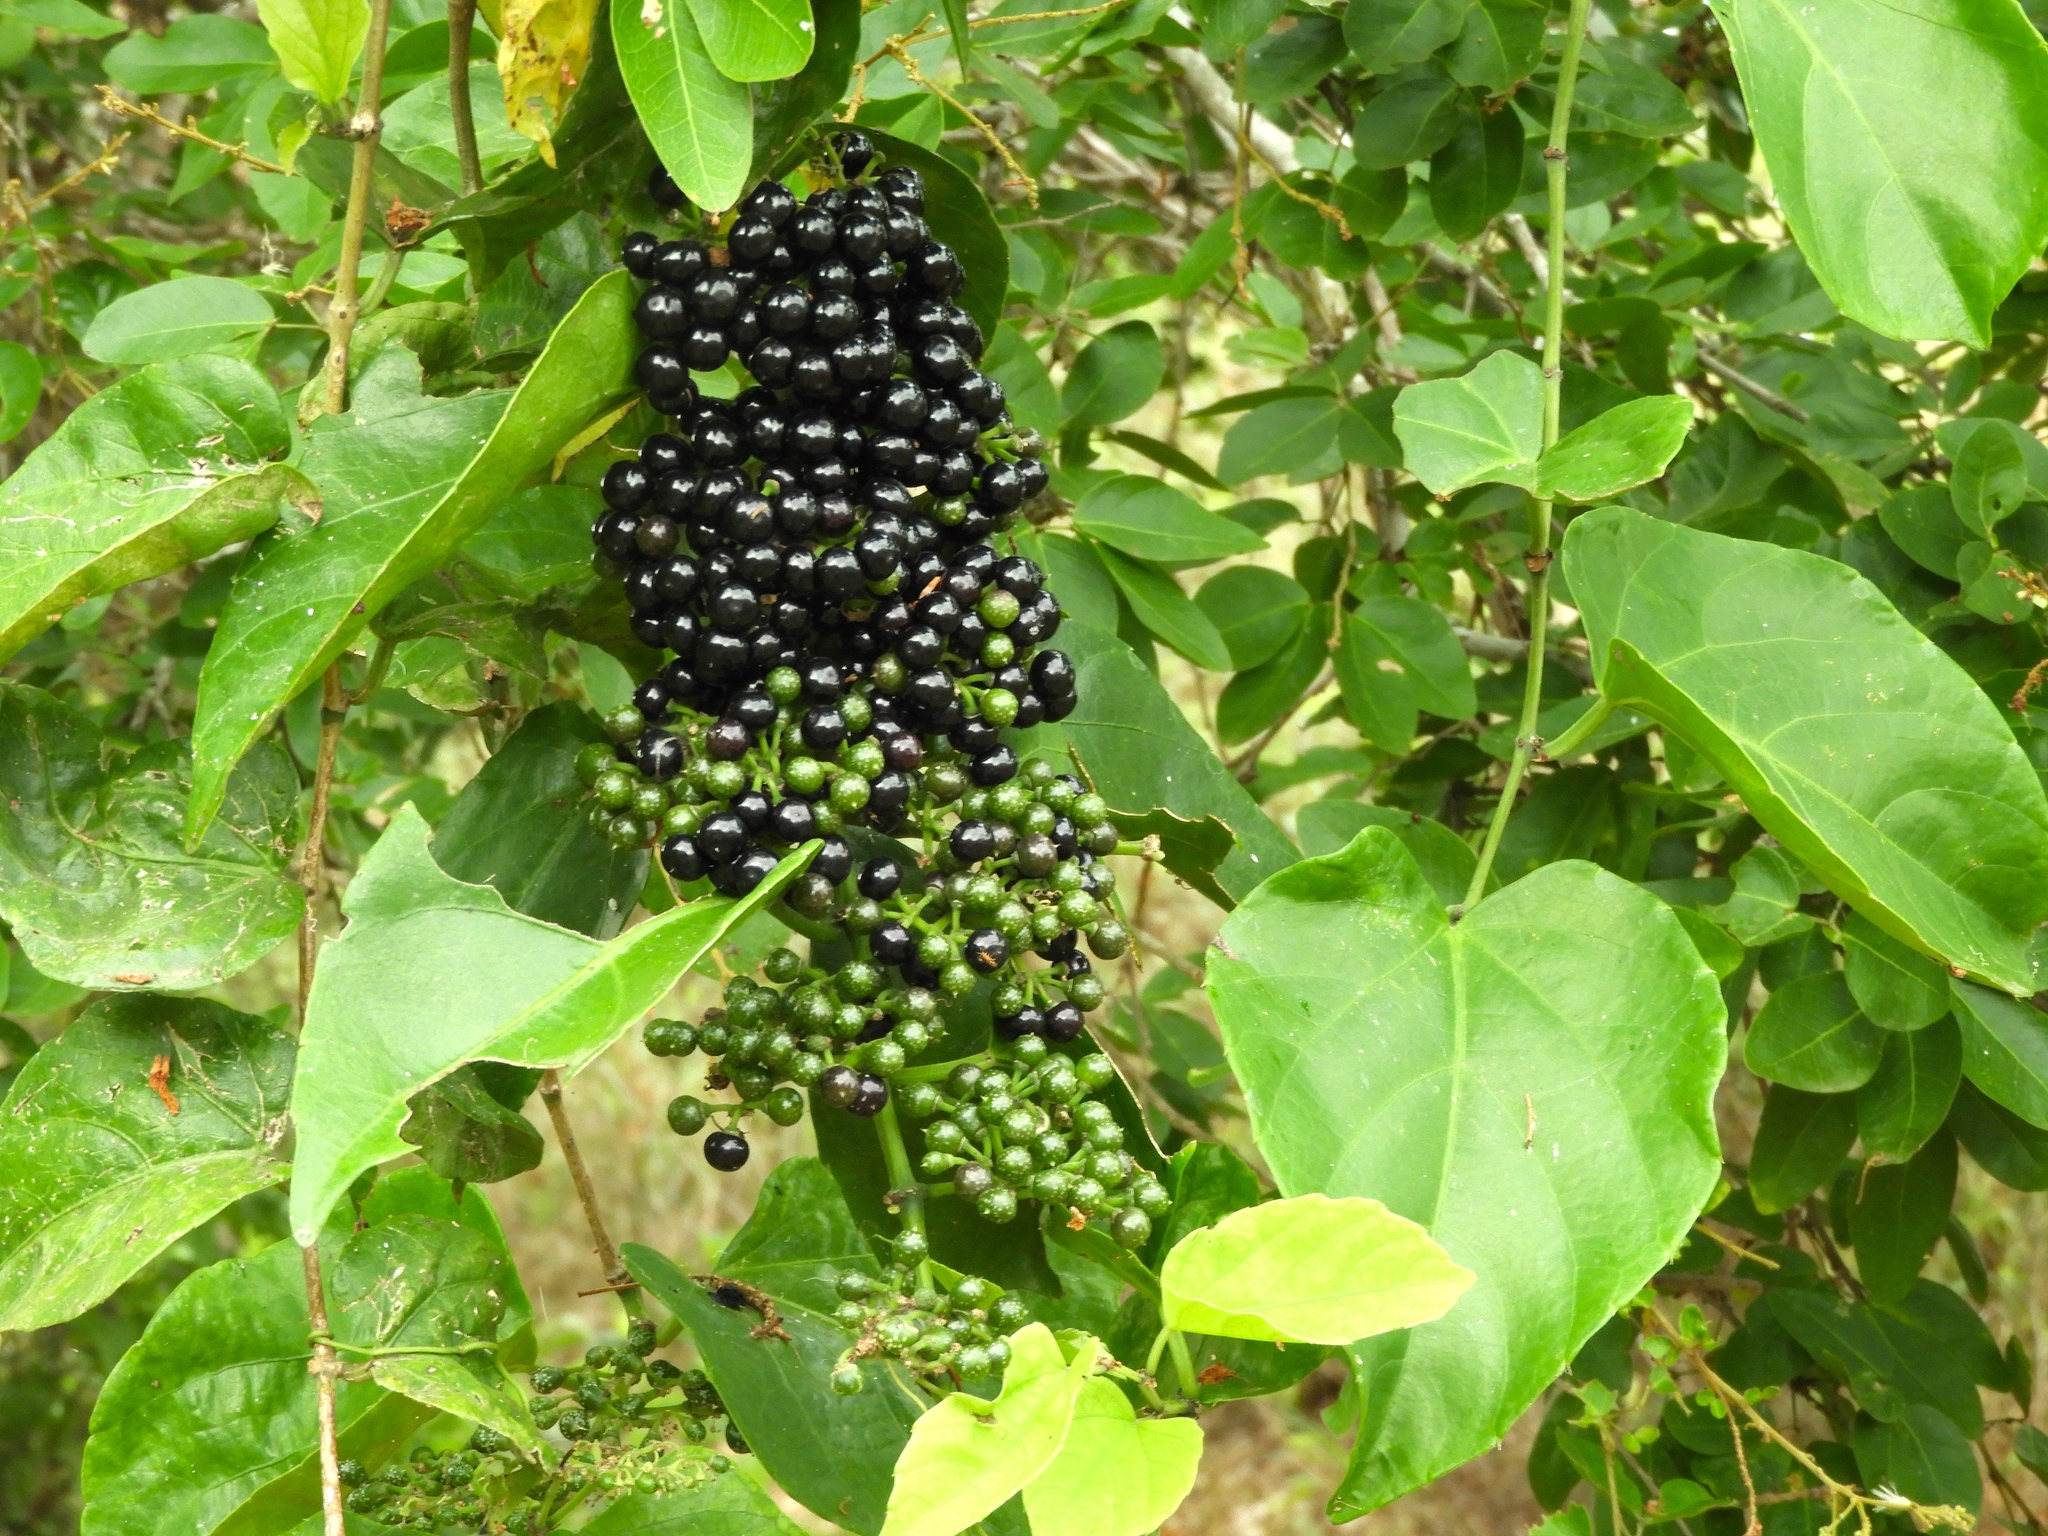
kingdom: Plantae
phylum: Tracheophyta
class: Magnoliopsida
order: Vitales
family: Vitaceae
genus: Cissus
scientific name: Cissus verticillata
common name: Princess vine
